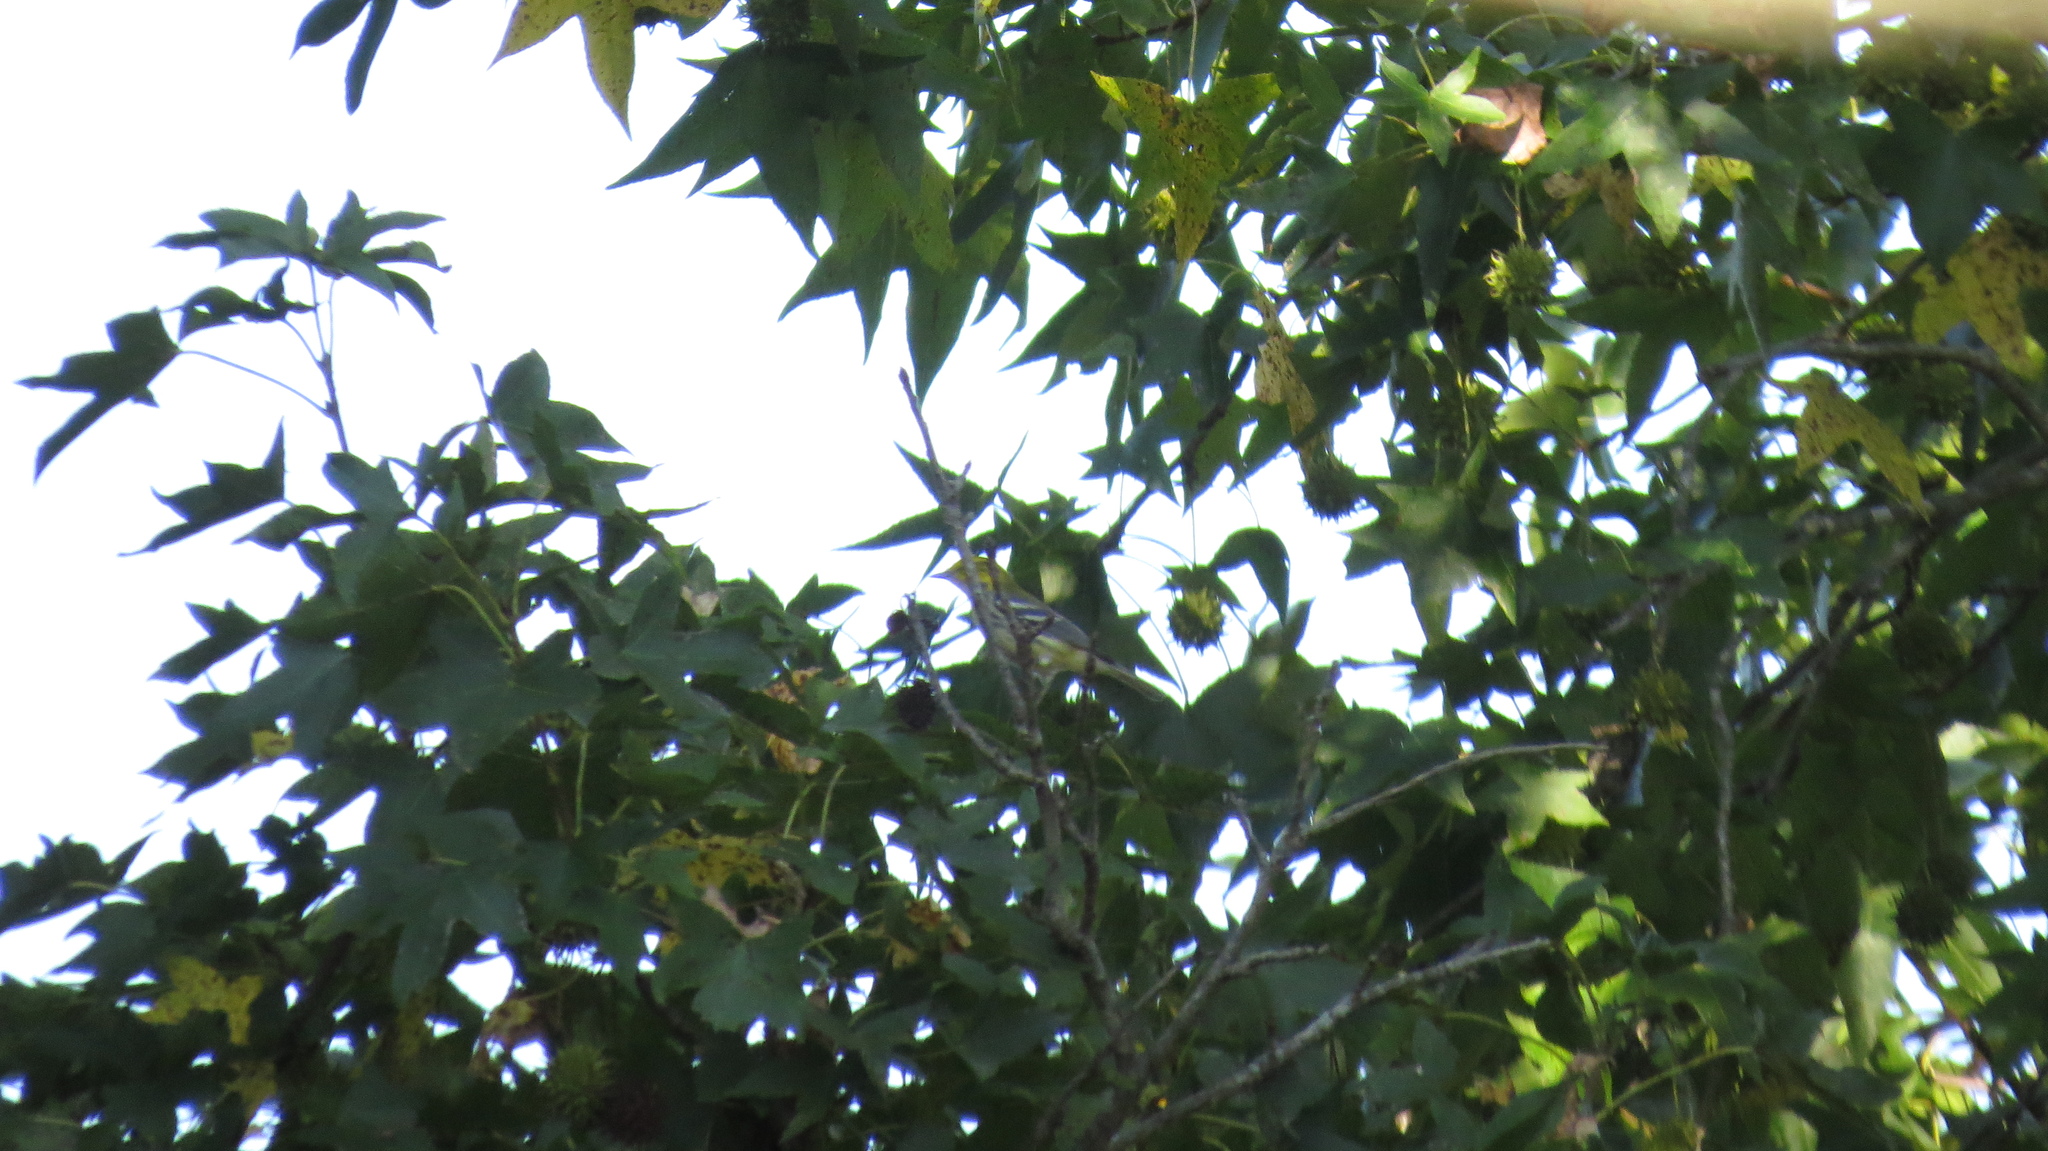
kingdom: Animalia
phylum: Chordata
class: Aves
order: Passeriformes
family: Parulidae
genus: Setophaga
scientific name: Setophaga virens
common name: Black-throated green warbler
